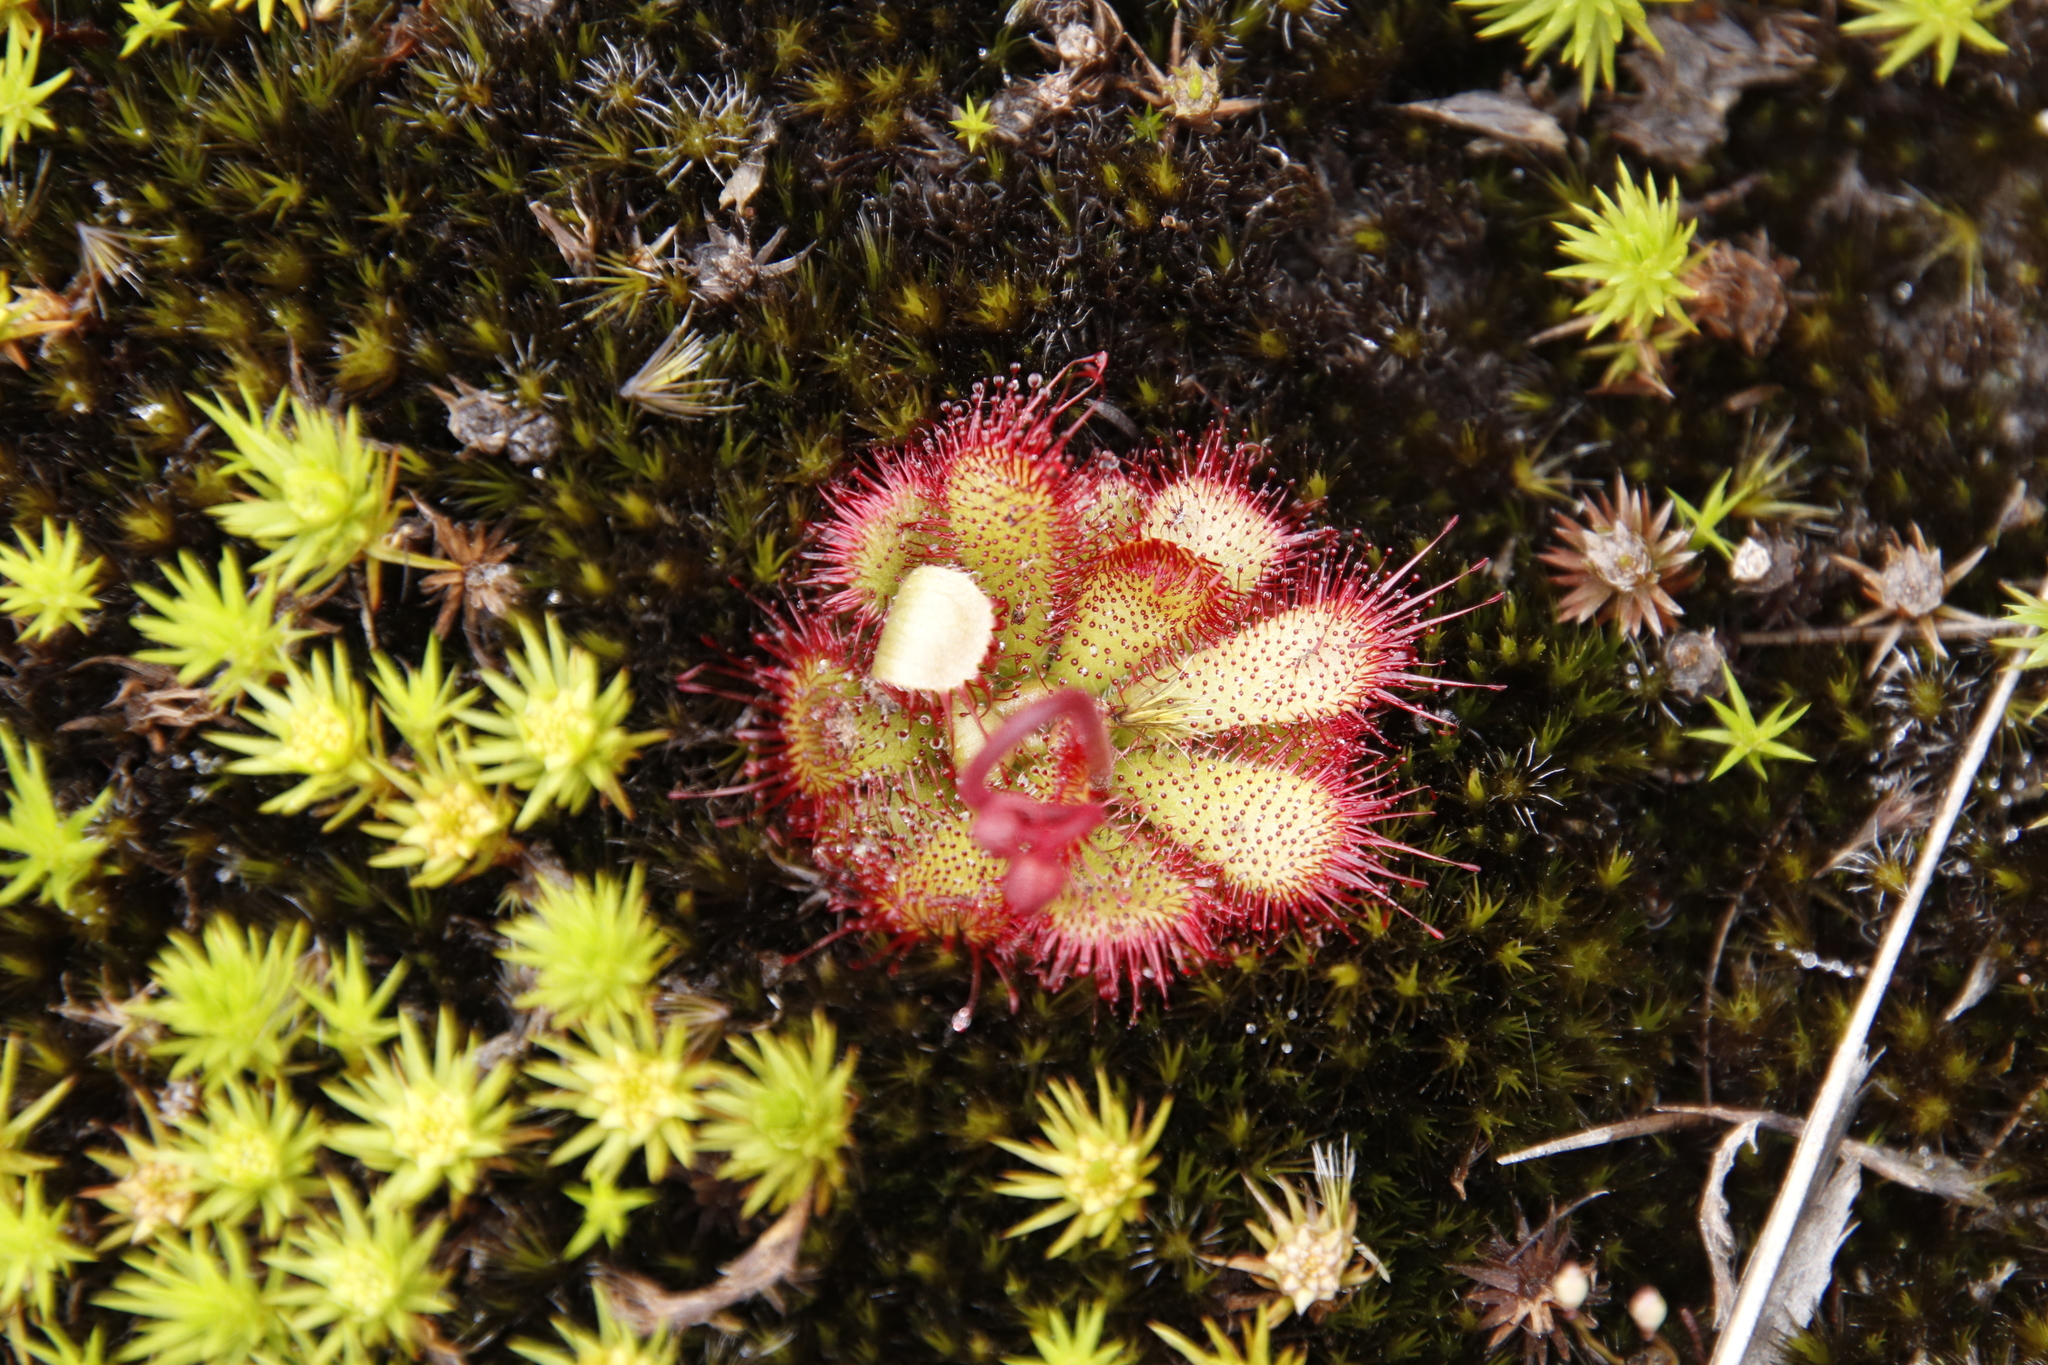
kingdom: Plantae
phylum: Tracheophyta
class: Magnoliopsida
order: Caryophyllales
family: Droseraceae
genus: Drosera
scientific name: Drosera cuneifolia
